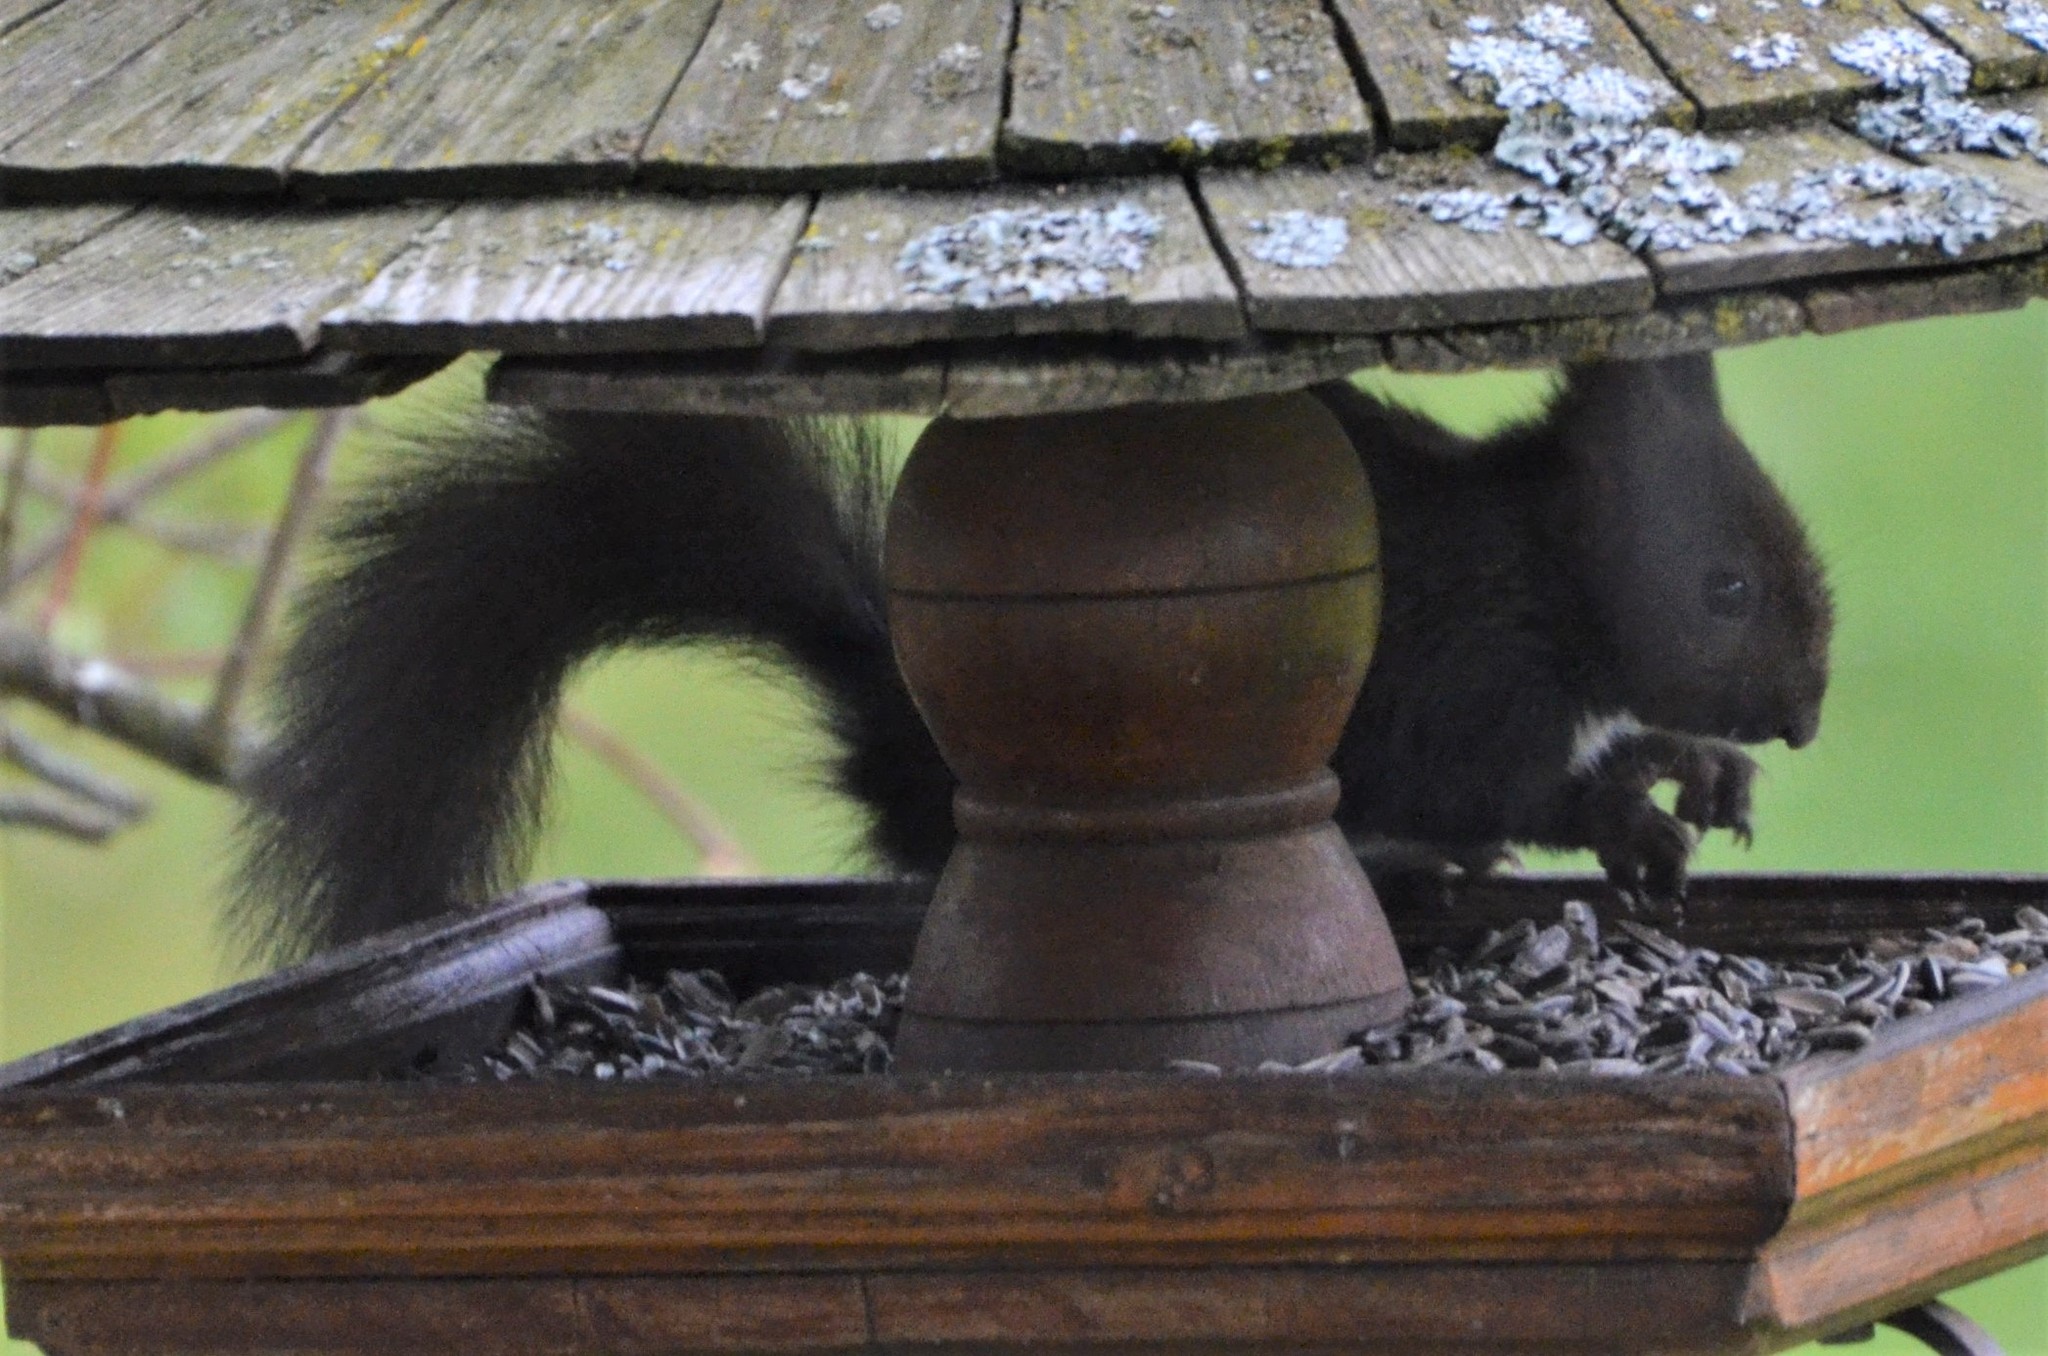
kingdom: Animalia
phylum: Chordata
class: Mammalia
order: Rodentia
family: Sciuridae
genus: Sciurus
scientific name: Sciurus vulgaris
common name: Eurasian red squirrel
